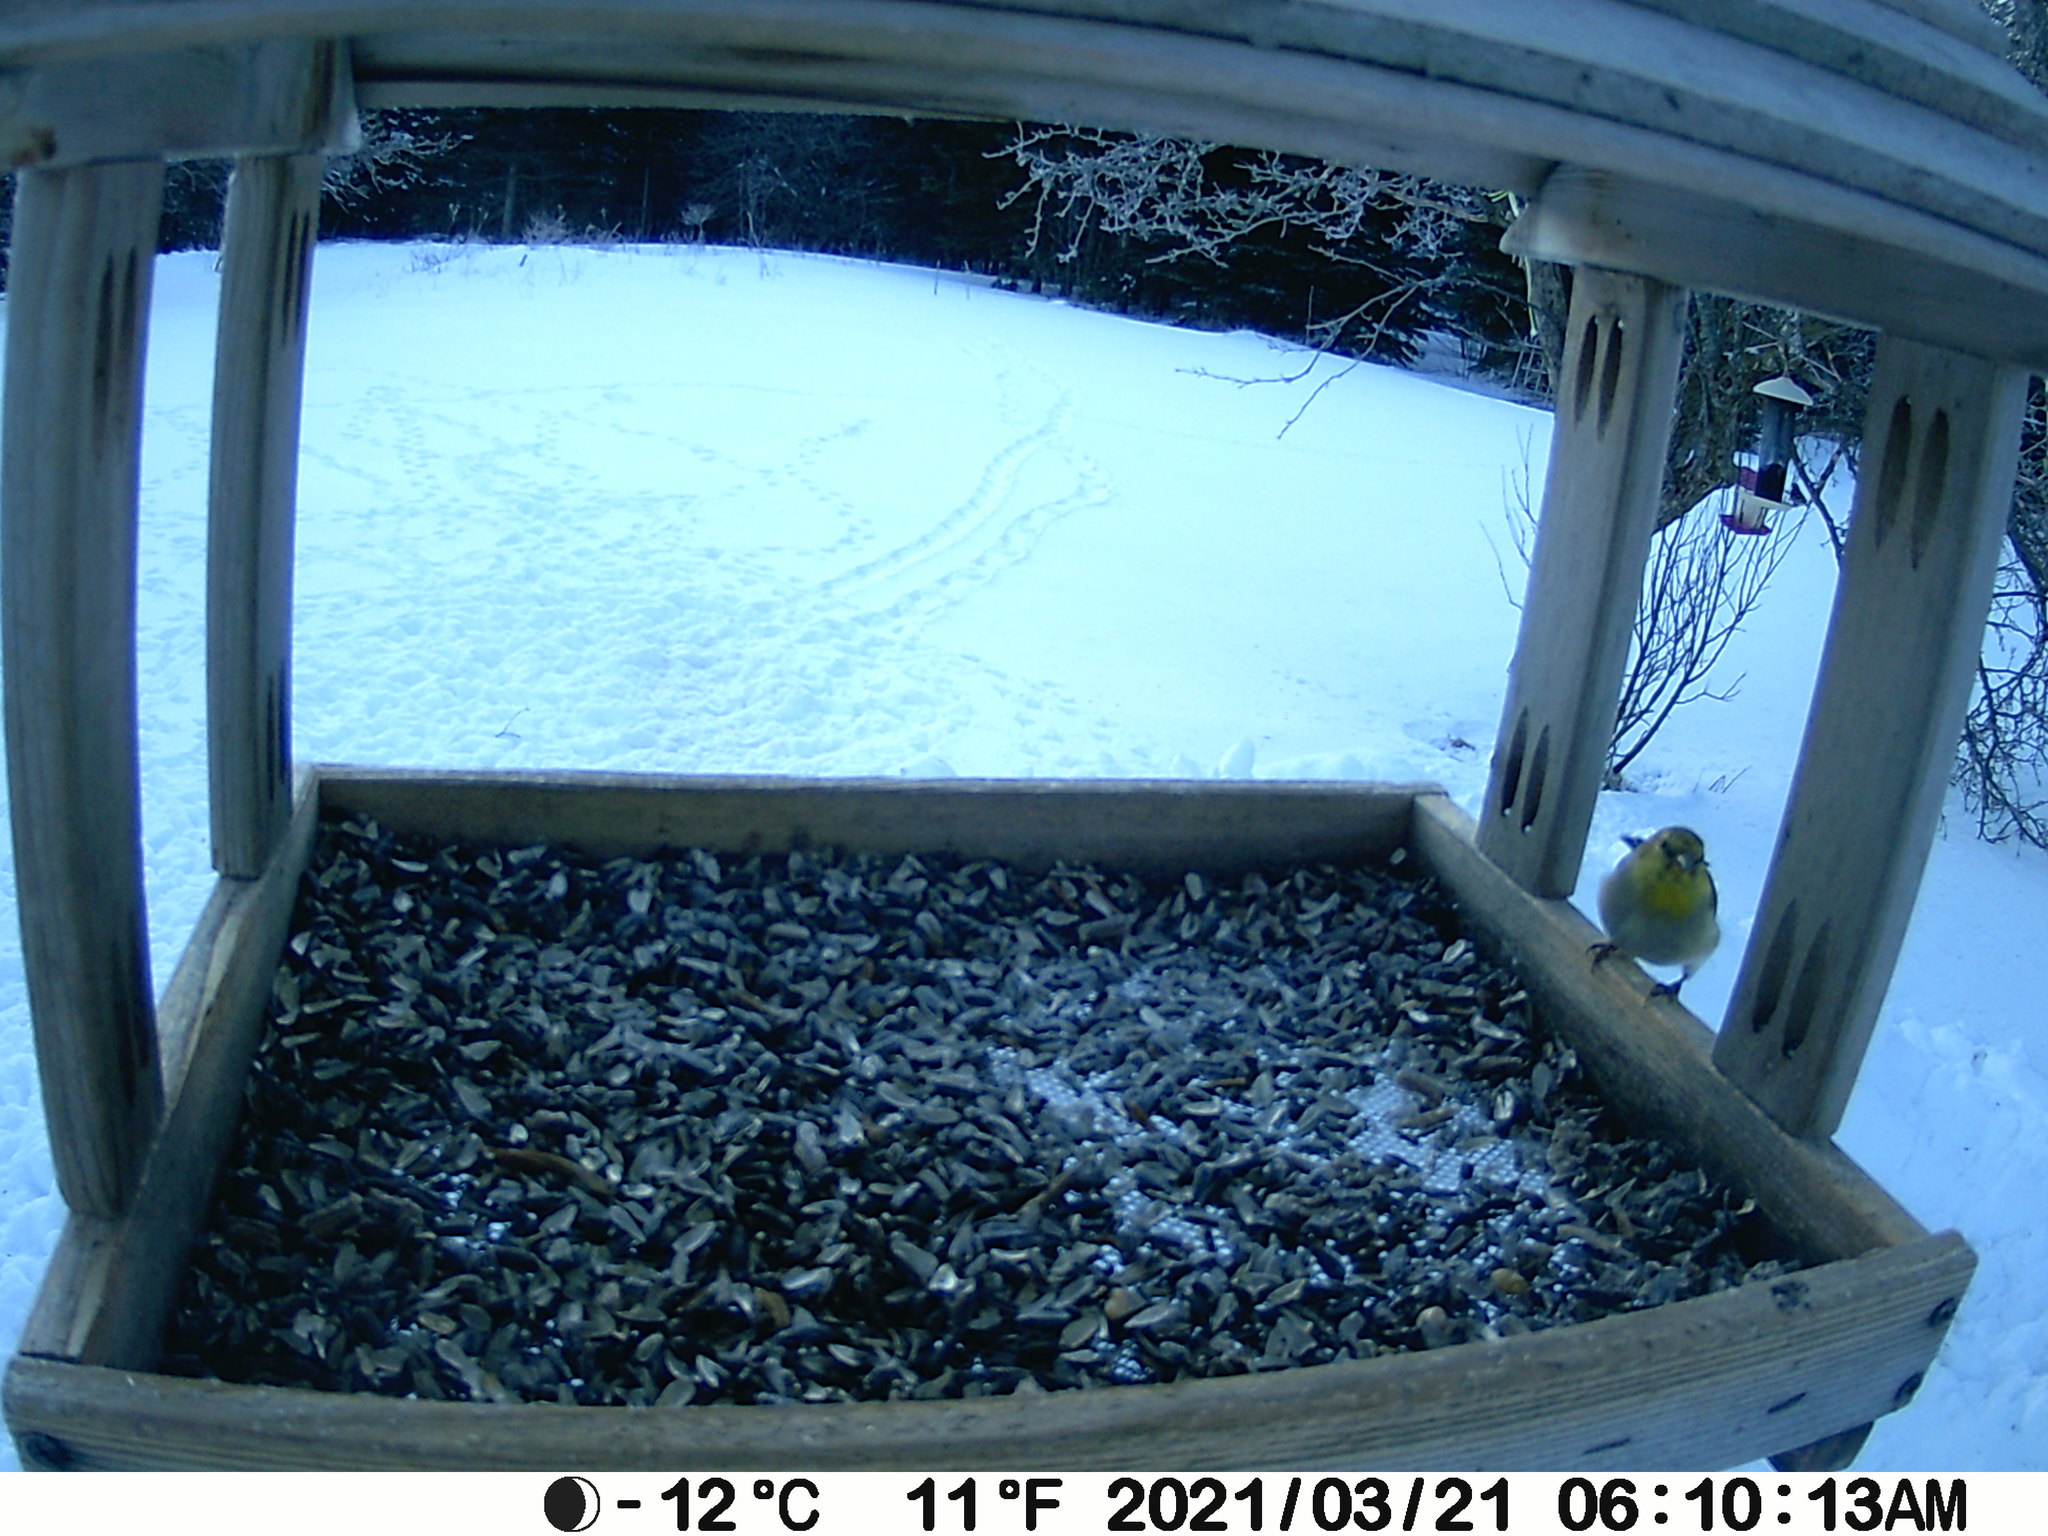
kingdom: Animalia
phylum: Chordata
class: Aves
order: Passeriformes
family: Fringillidae
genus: Spinus
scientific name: Spinus tristis
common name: American goldfinch
